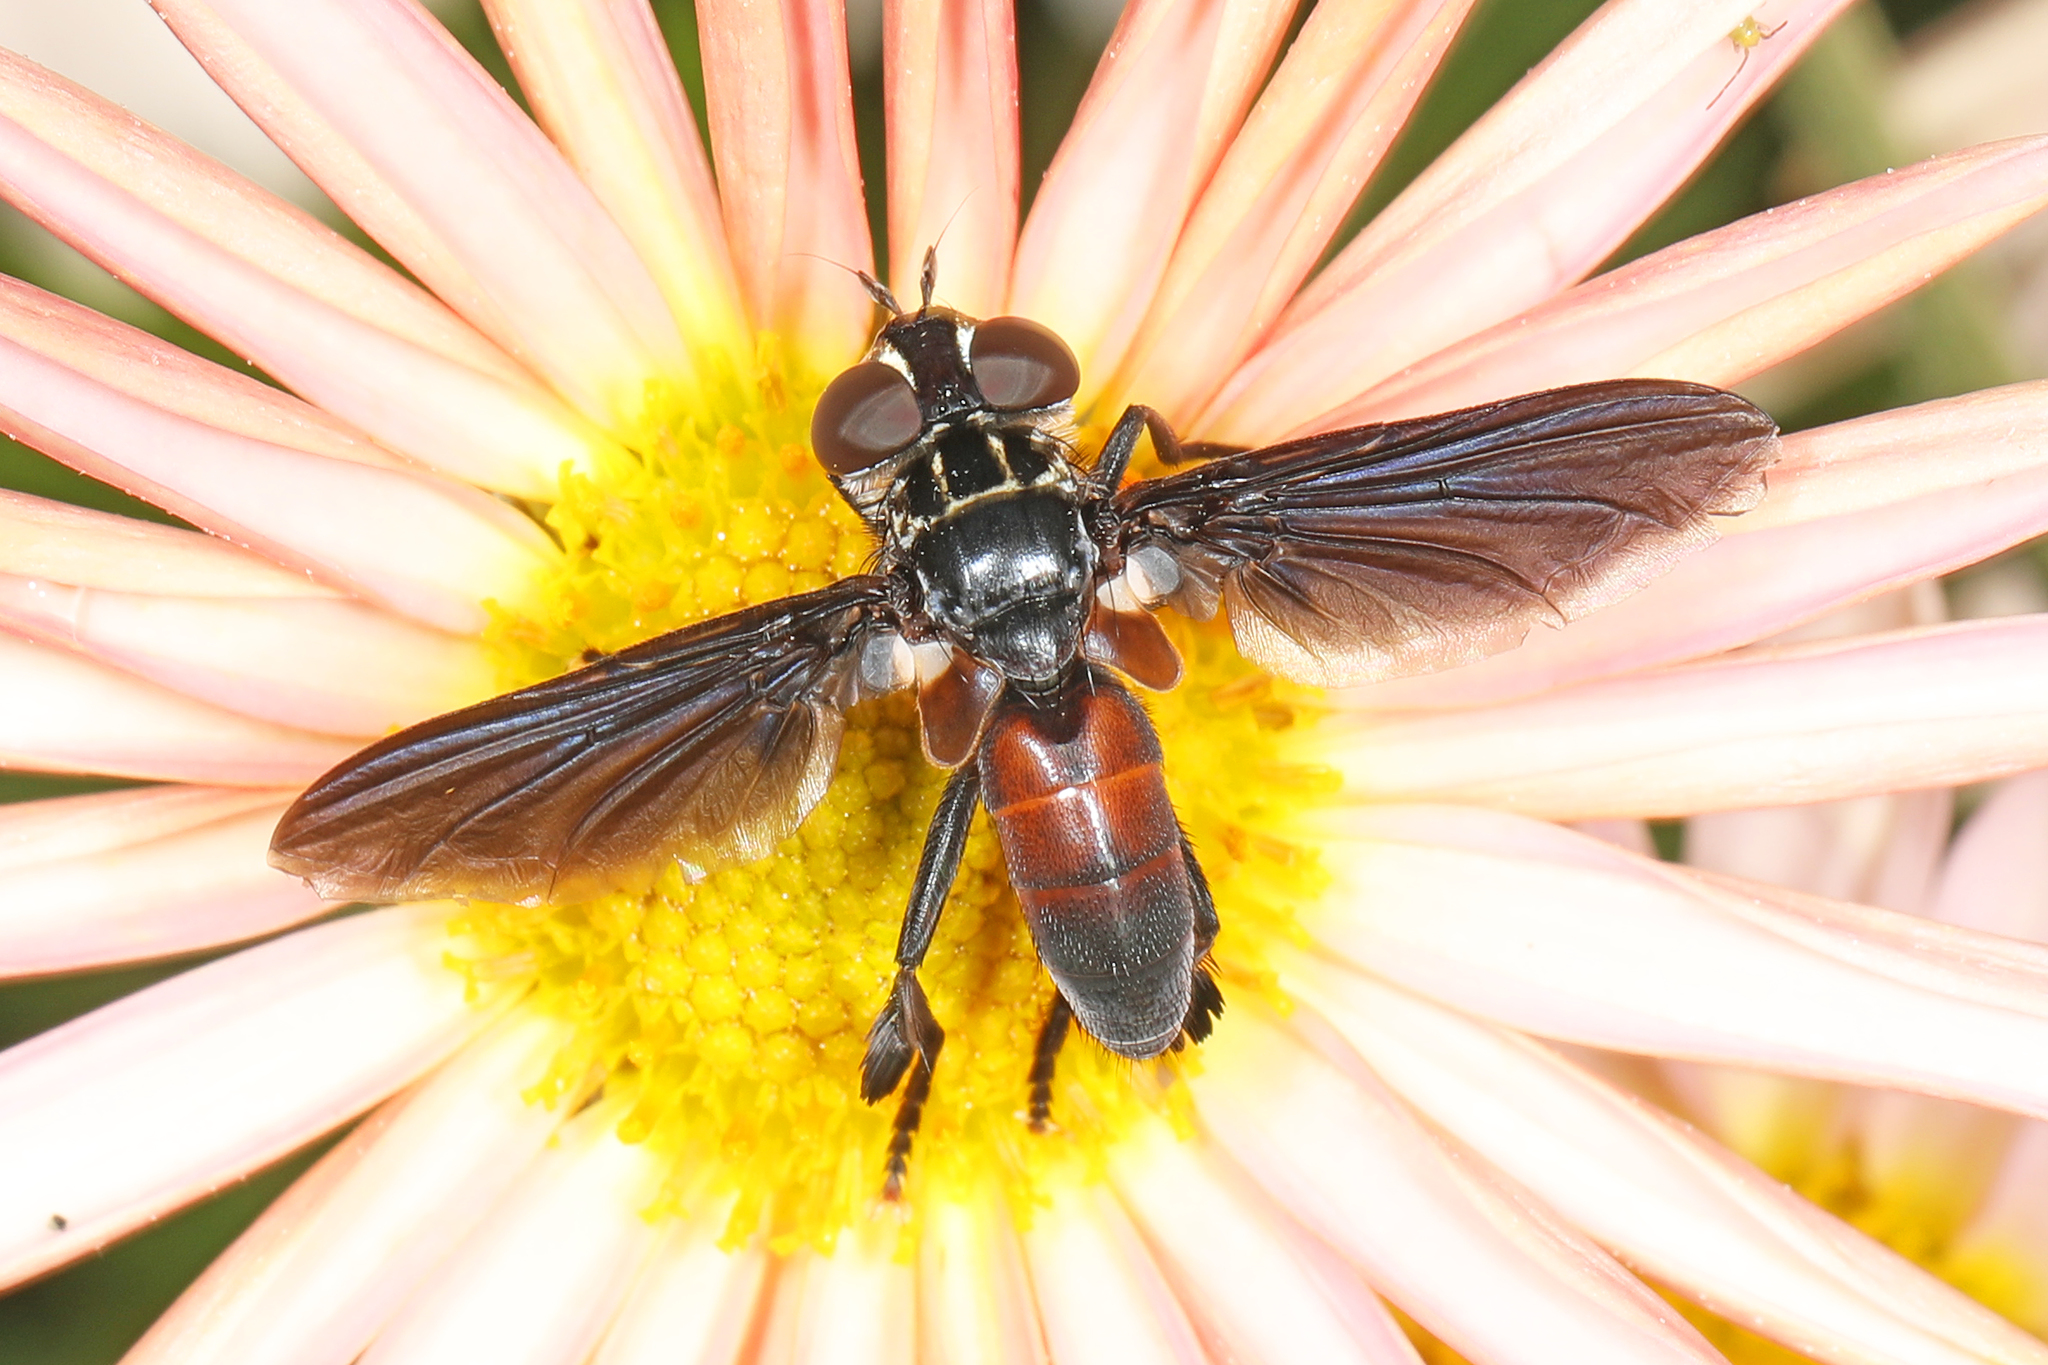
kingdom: Animalia
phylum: Arthropoda
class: Insecta
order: Diptera
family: Tachinidae
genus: Trichopoda
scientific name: Trichopoda pennipes
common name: Tachinid fly
